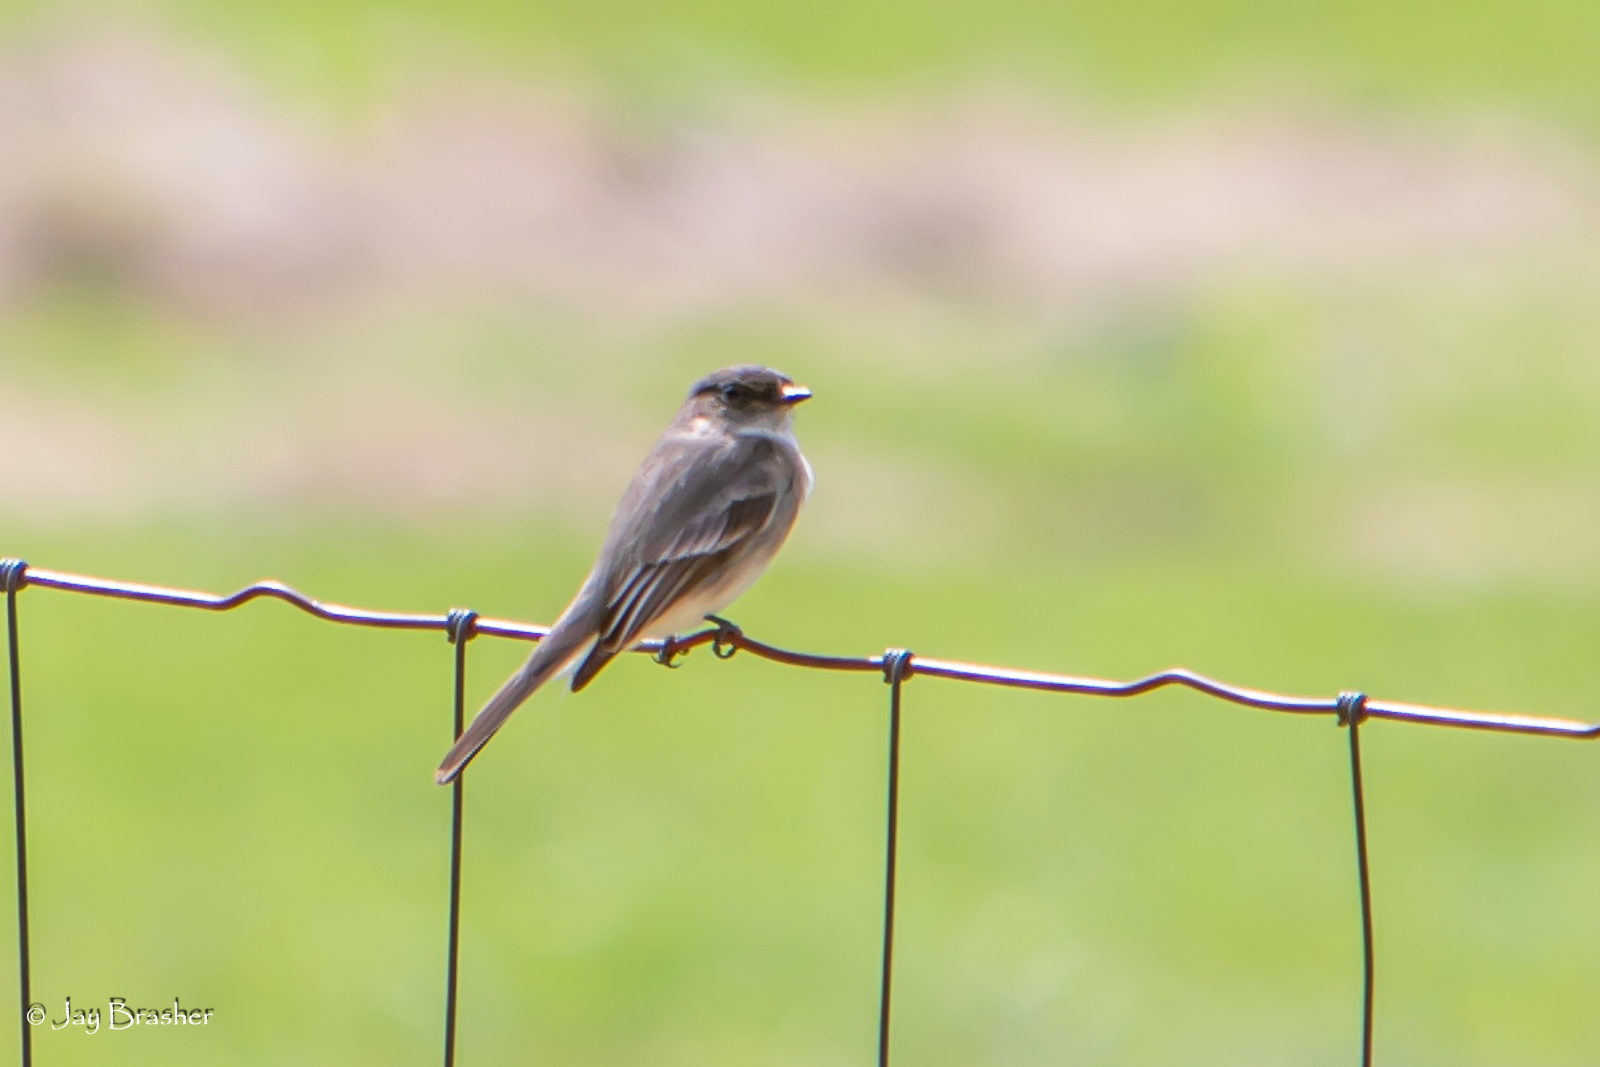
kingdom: Animalia
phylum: Chordata
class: Aves
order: Passeriformes
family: Tyrannidae
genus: Sayornis
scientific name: Sayornis phoebe
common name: Eastern phoebe
